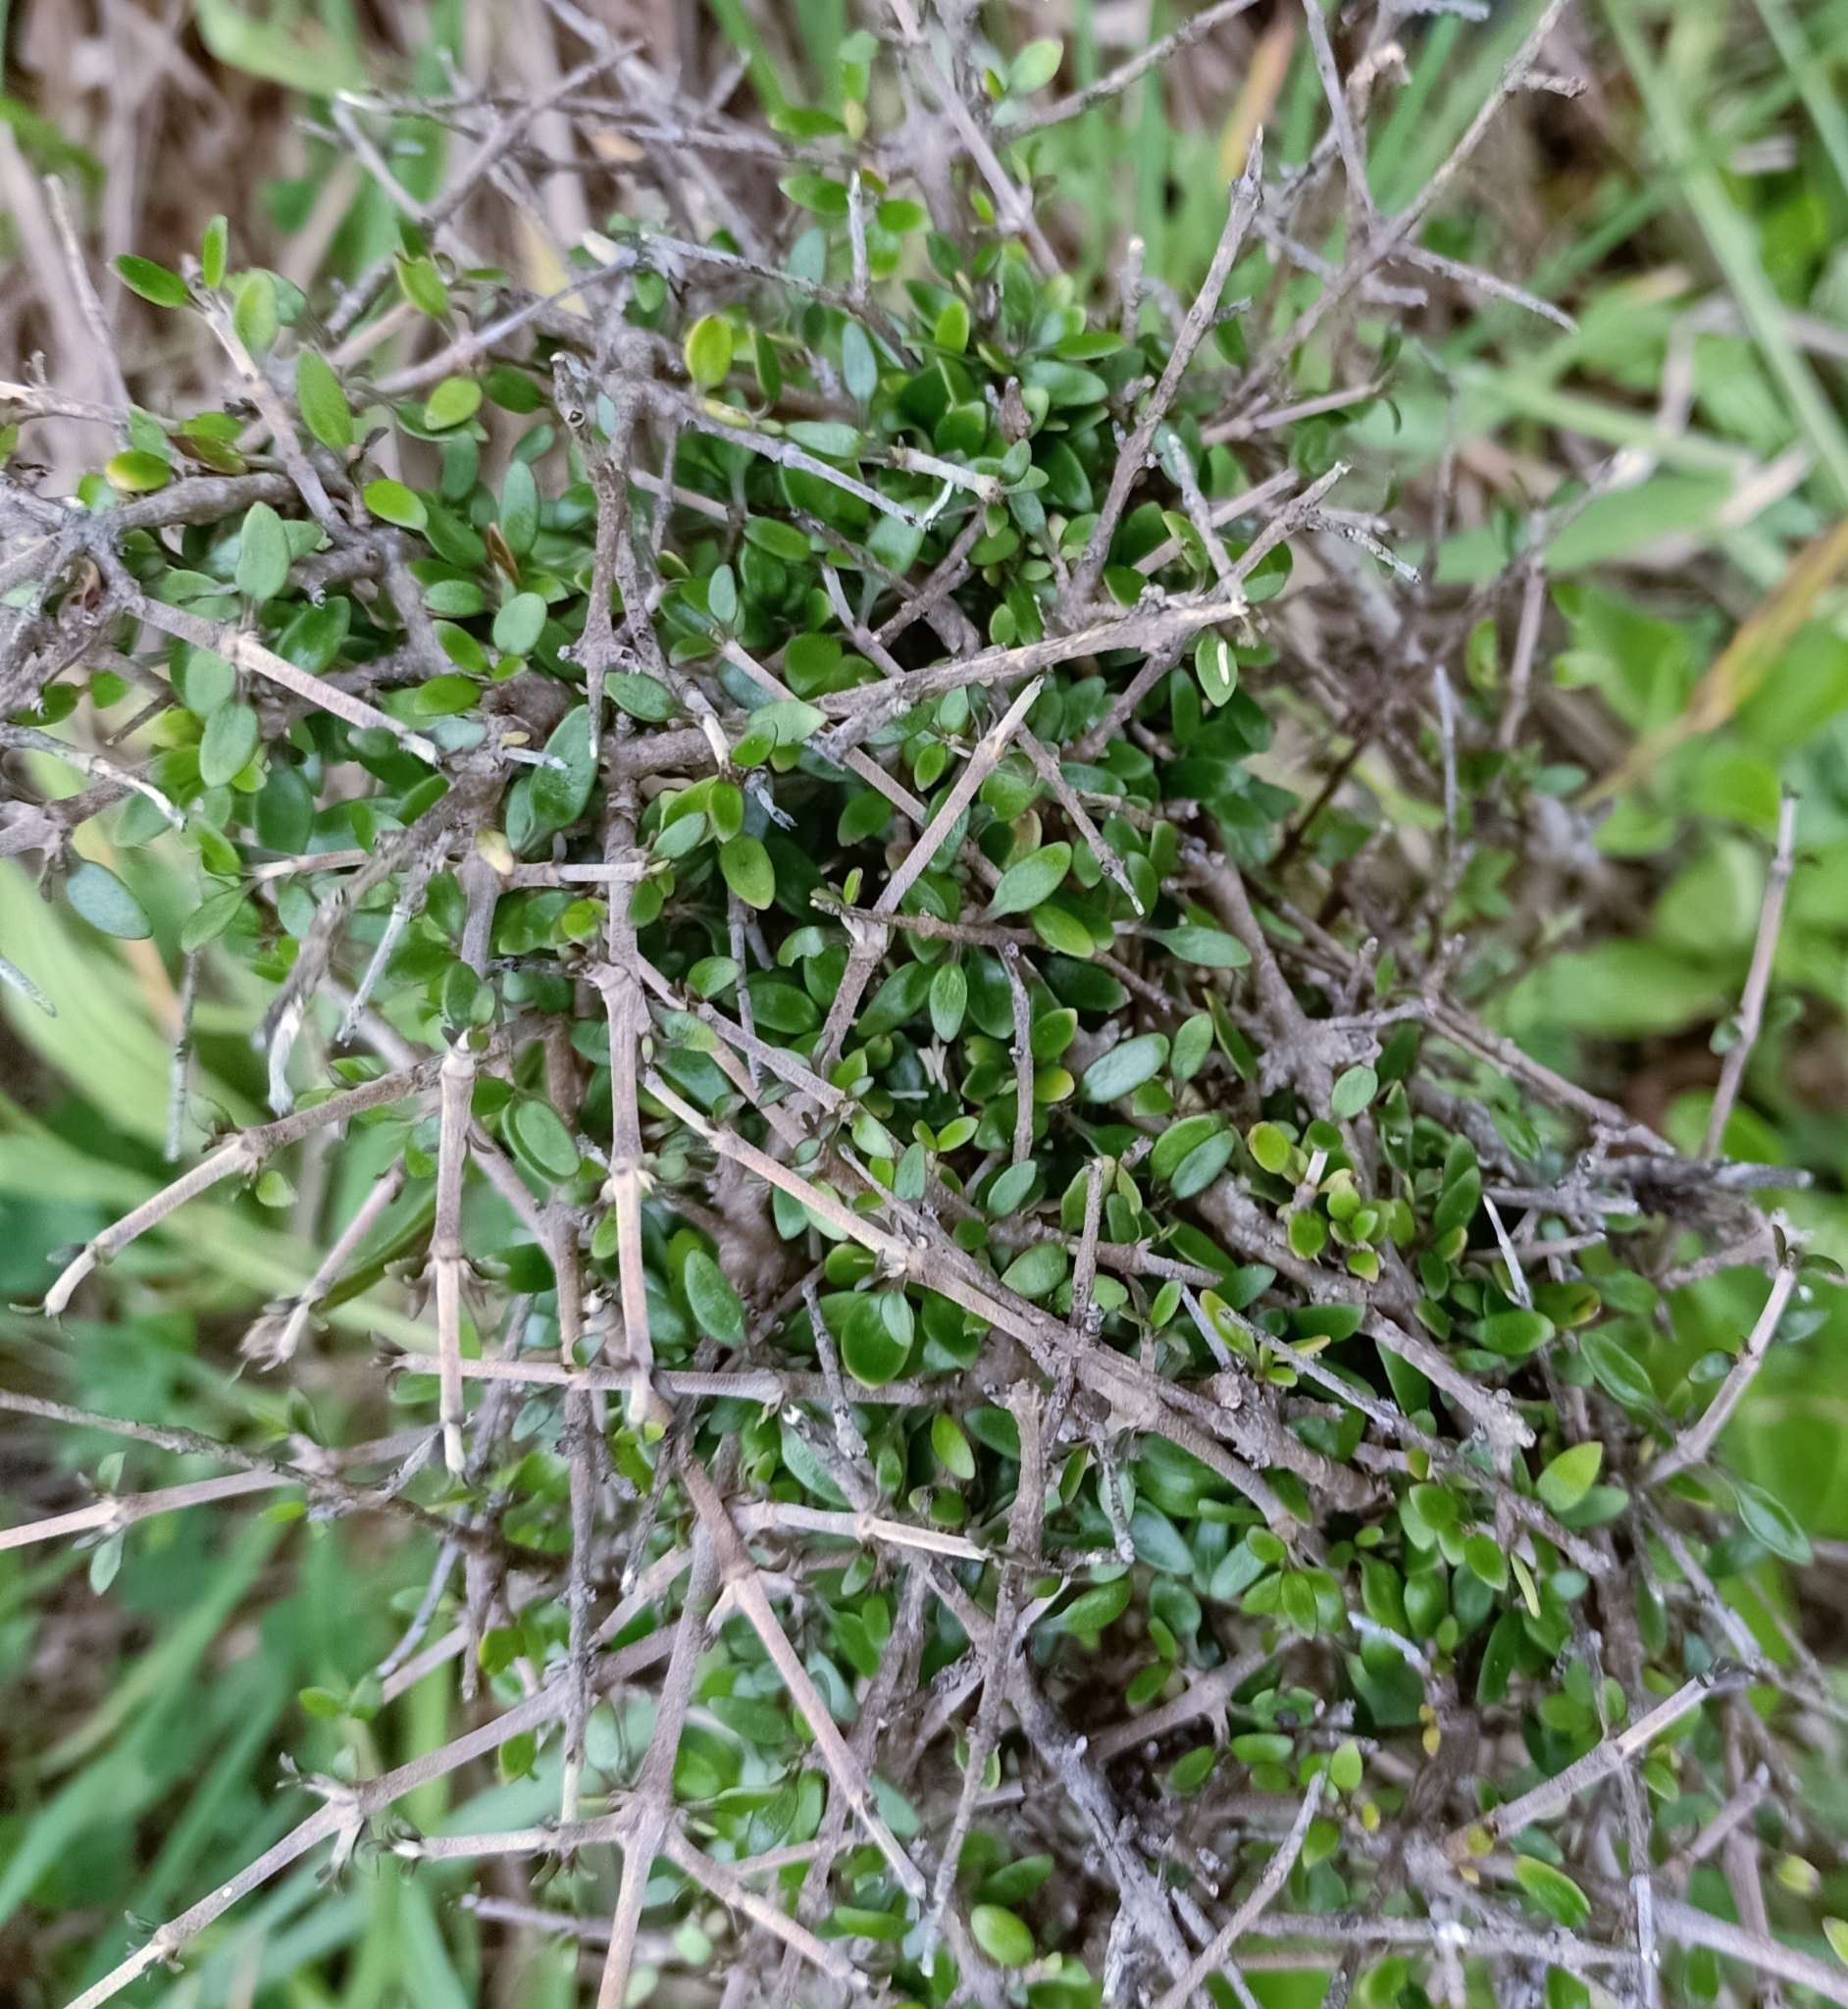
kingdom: Plantae
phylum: Tracheophyta
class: Magnoliopsida
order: Gentianales
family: Rubiaceae
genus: Coprosma
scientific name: Coprosma propinqua
